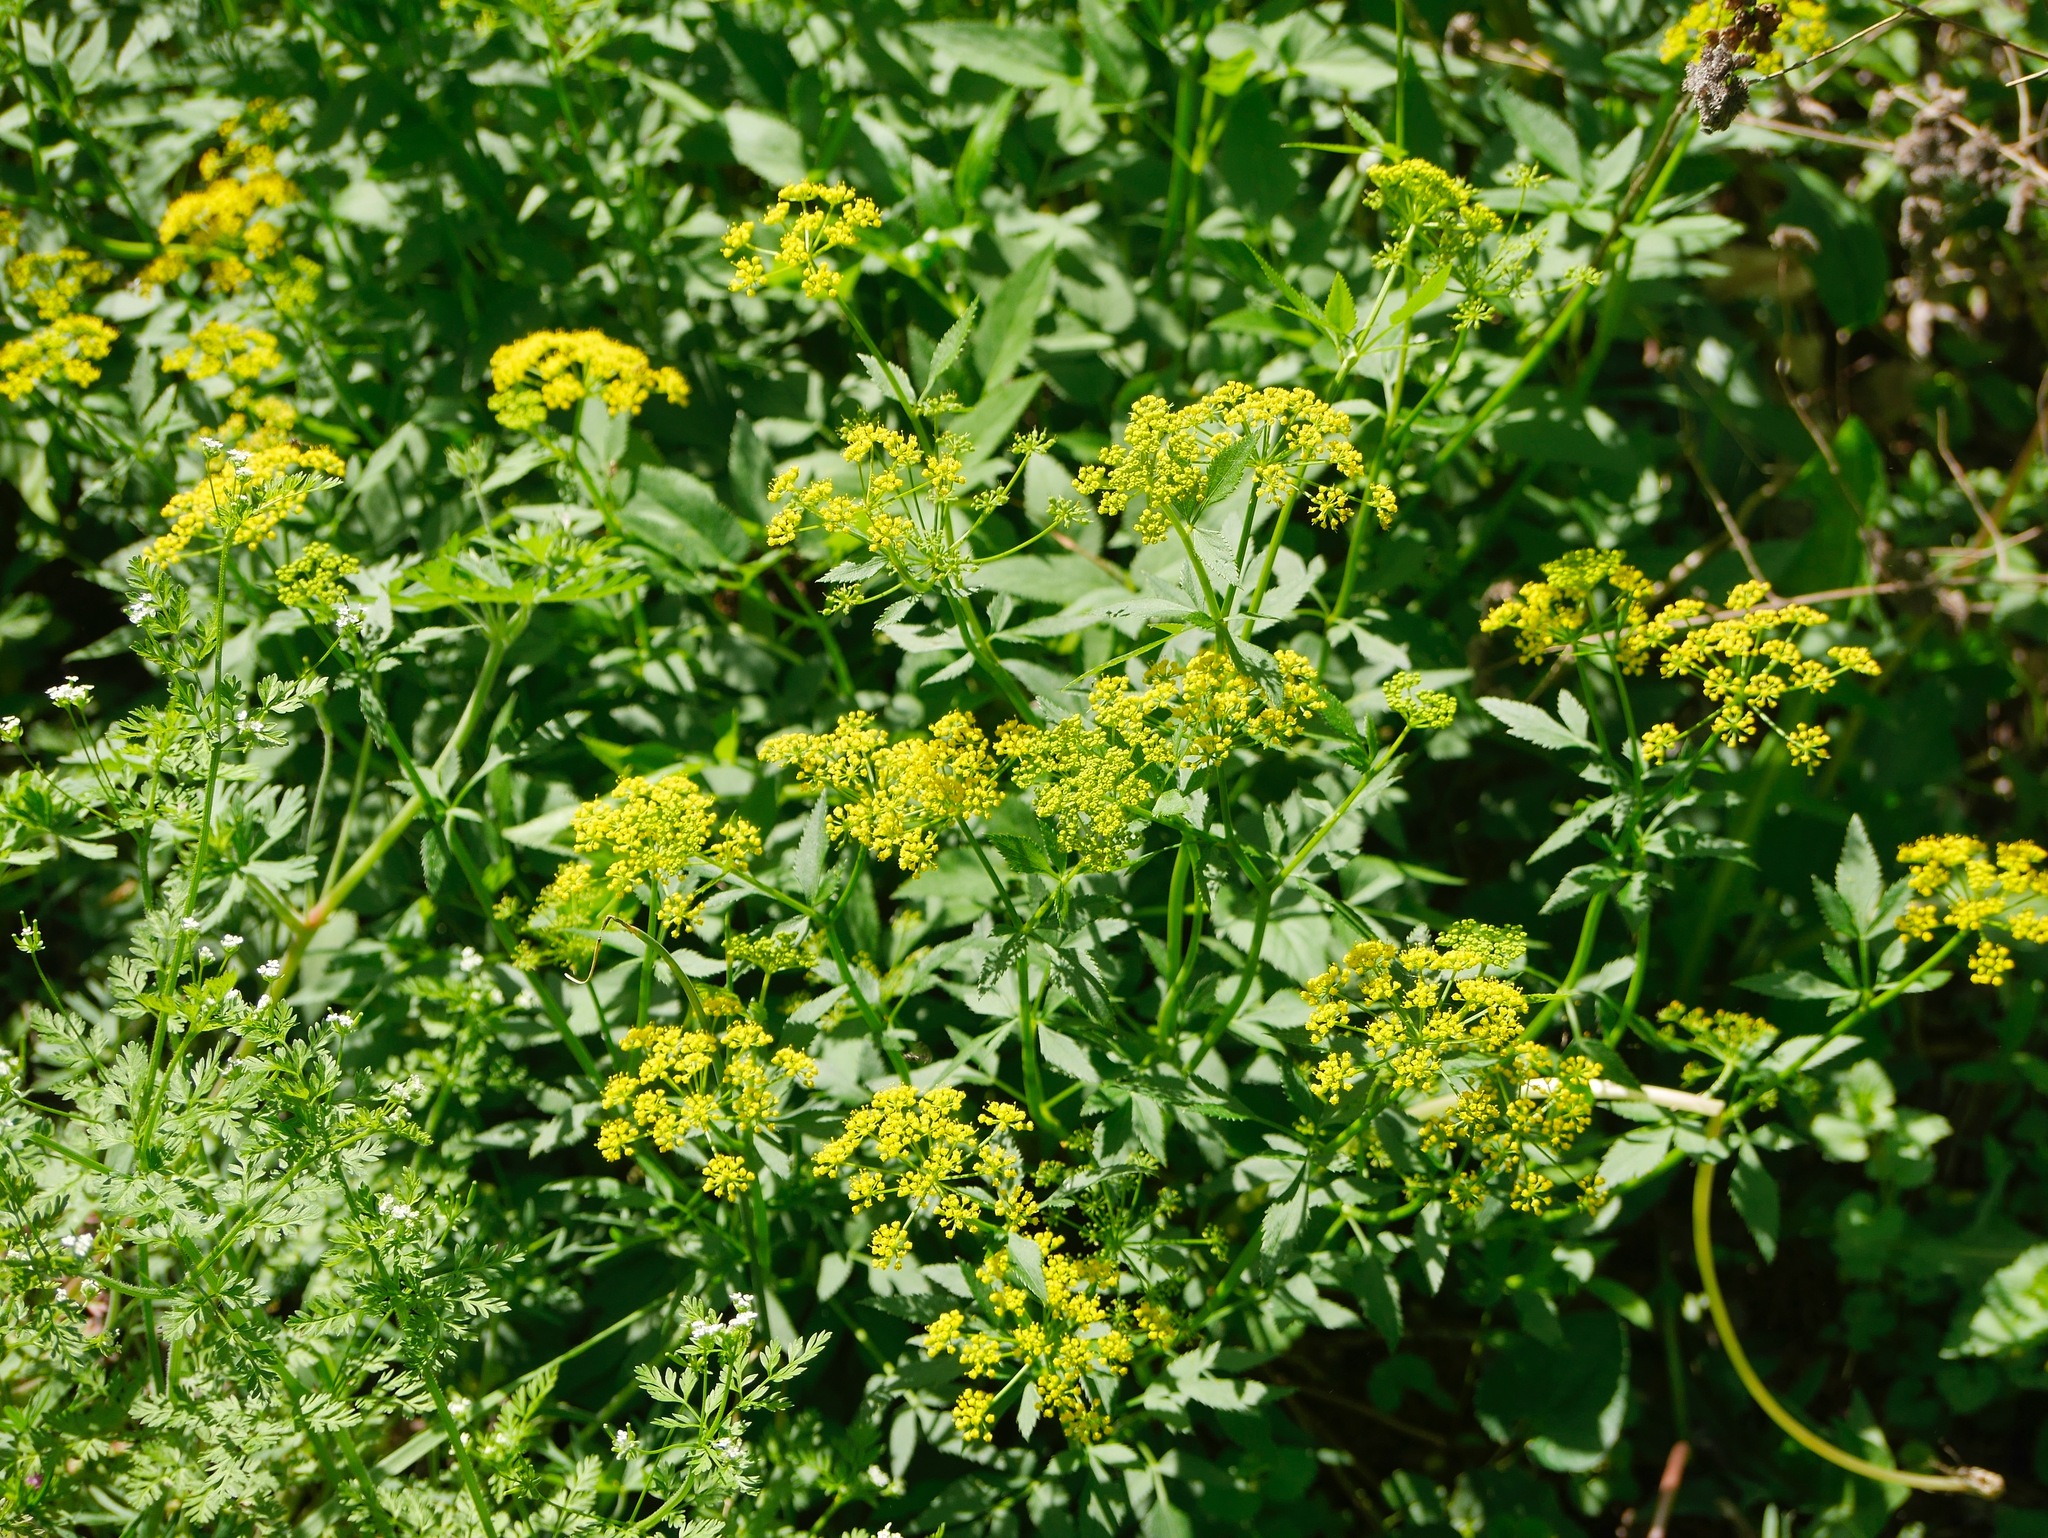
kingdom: Plantae
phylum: Tracheophyta
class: Magnoliopsida
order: Apiales
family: Apiaceae
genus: Zizia
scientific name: Zizia aurea
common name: Golden alexanders
